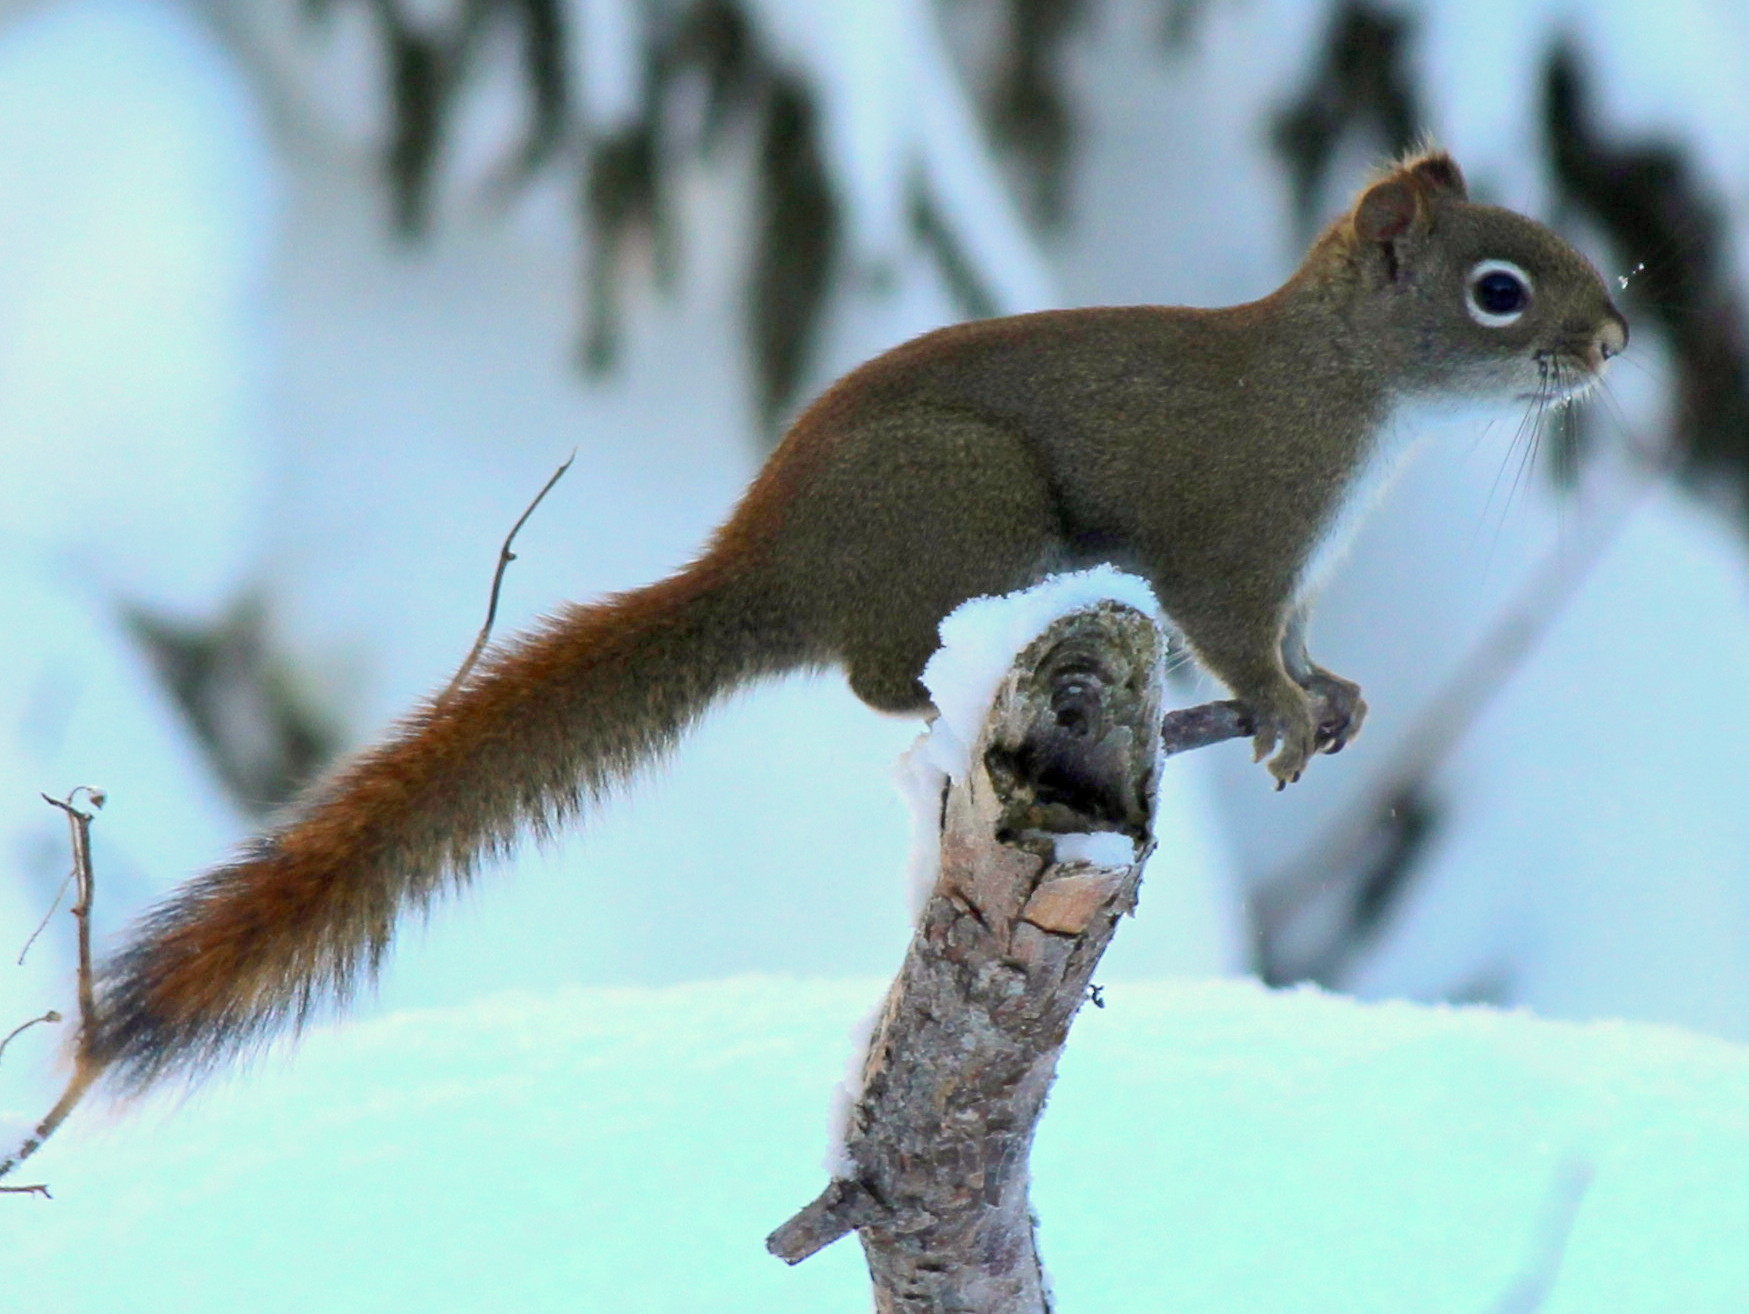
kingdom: Animalia
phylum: Chordata
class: Mammalia
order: Rodentia
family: Sciuridae
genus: Tamiasciurus
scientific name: Tamiasciurus hudsonicus
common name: Red squirrel
